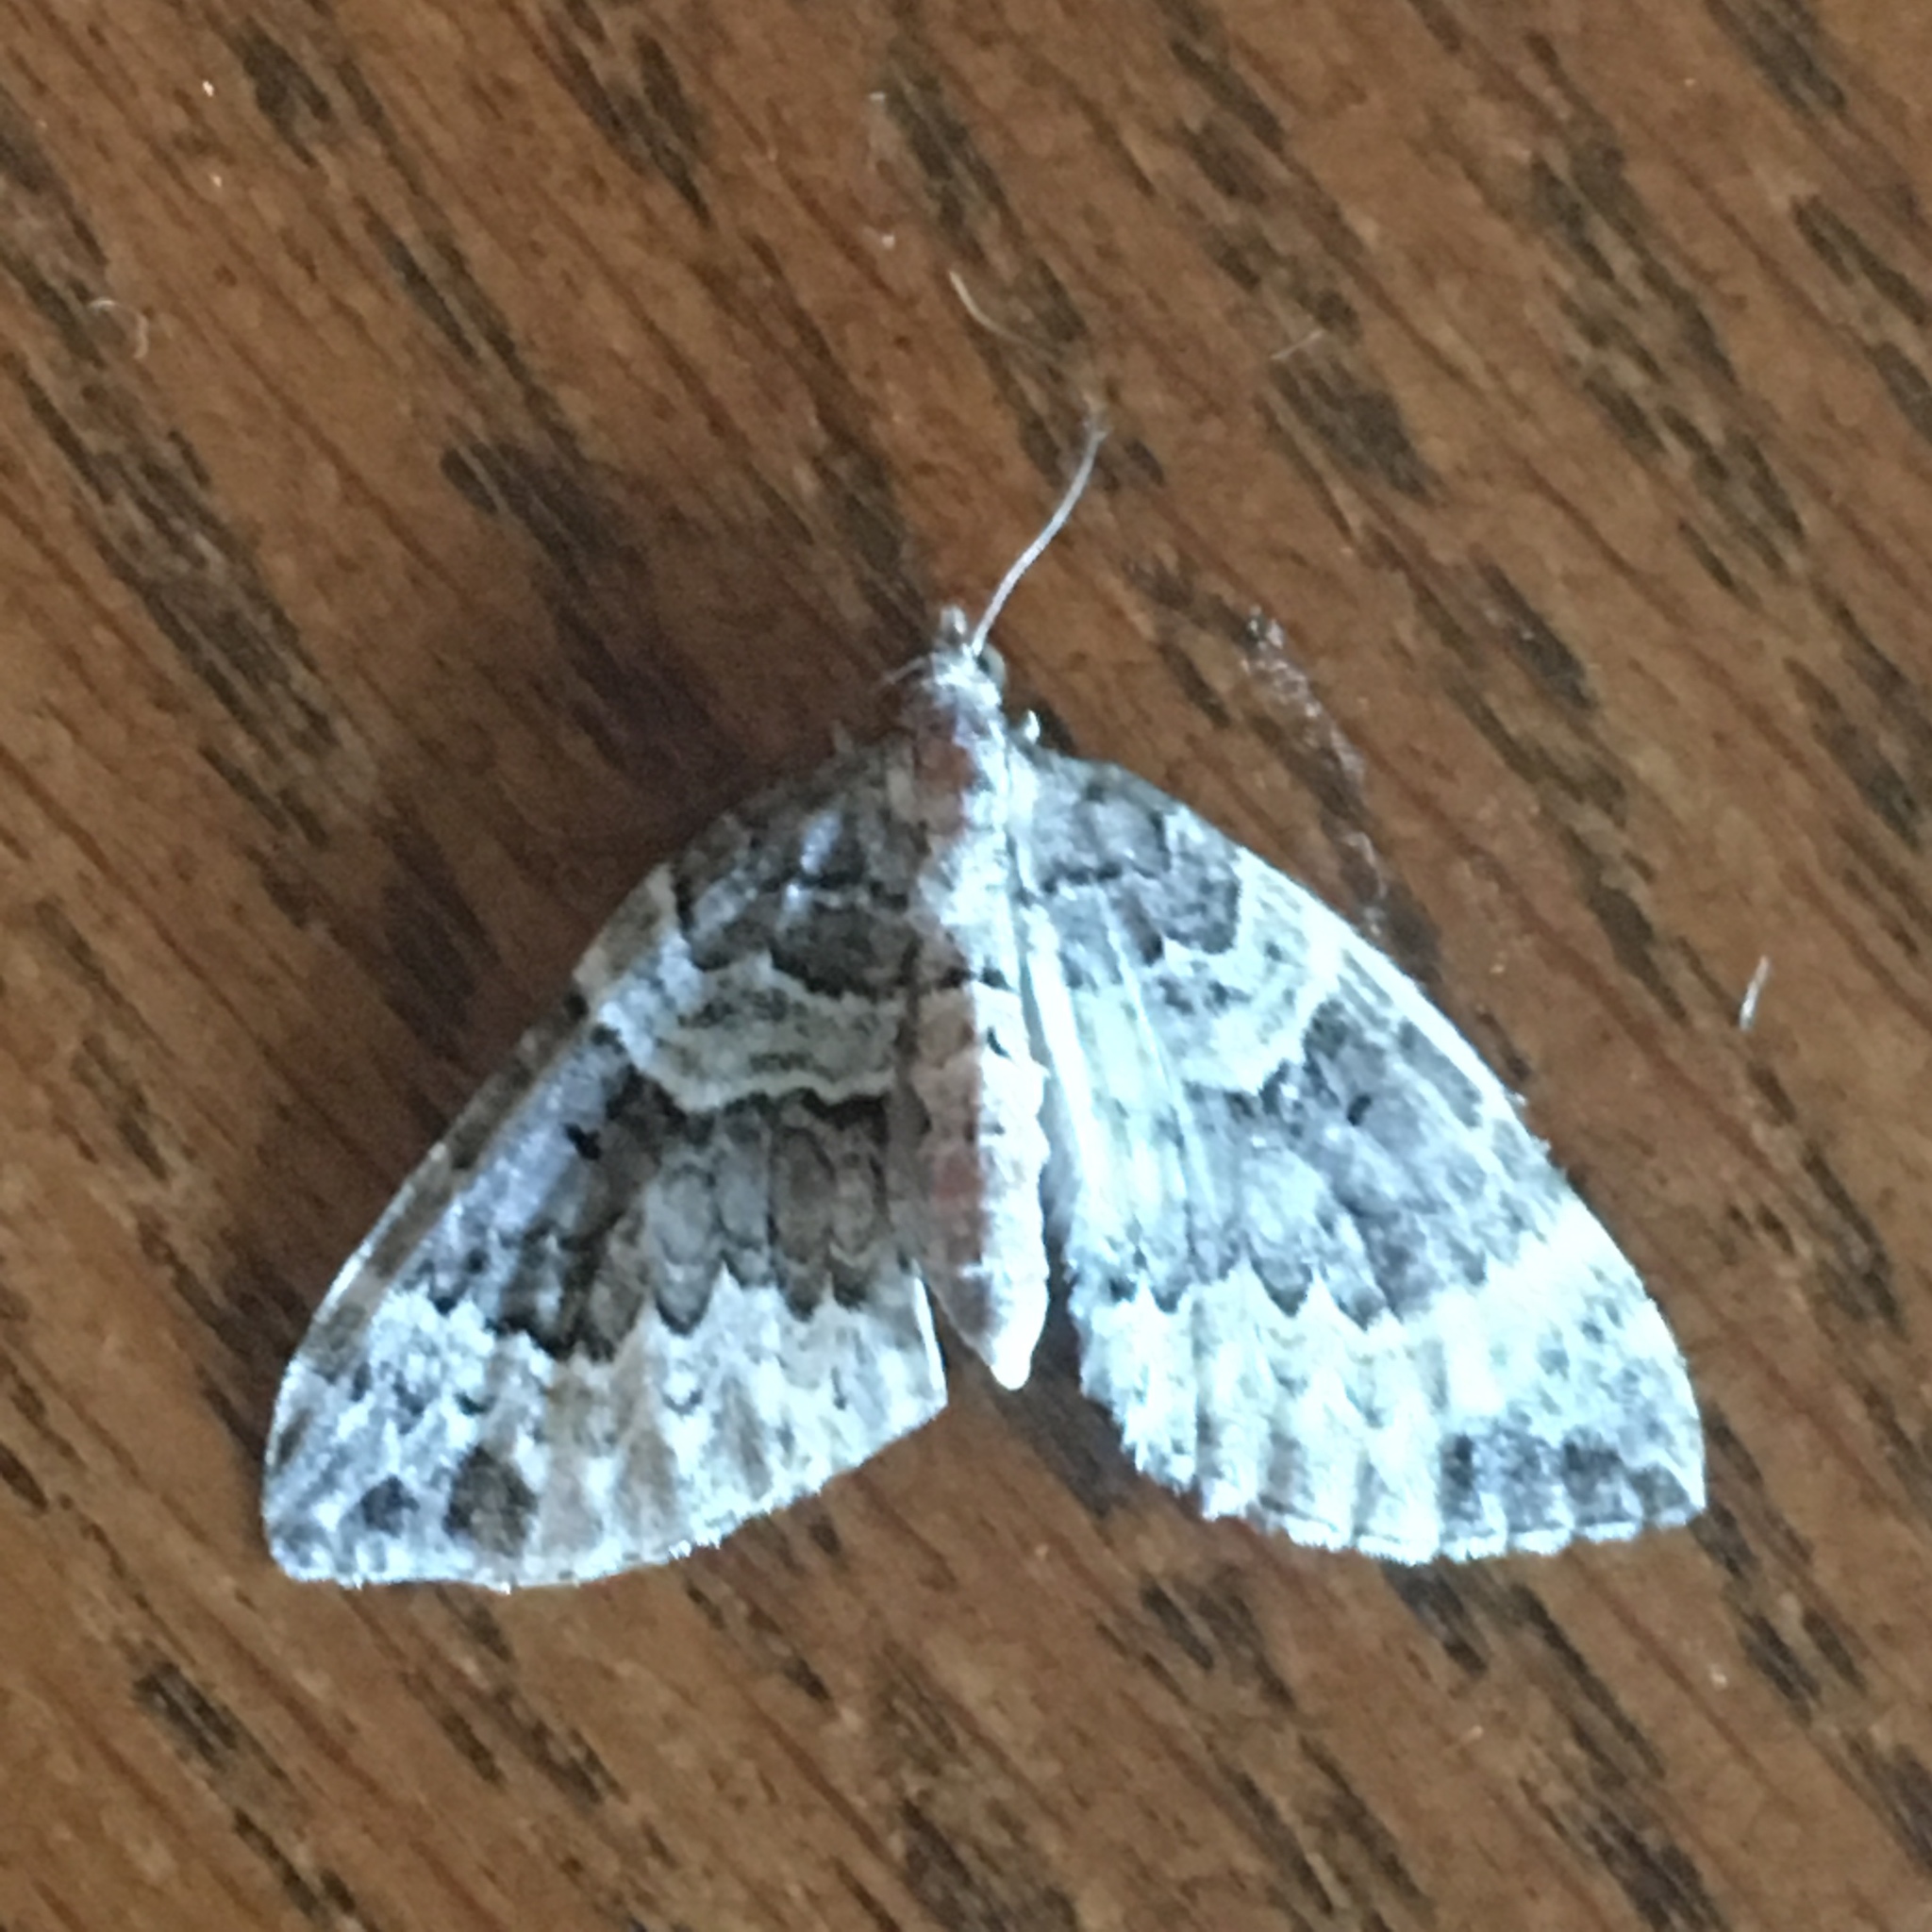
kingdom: Animalia
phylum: Arthropoda
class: Insecta
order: Lepidoptera
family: Geometridae
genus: Eulithis
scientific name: Eulithis explanata
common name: White eulithis
